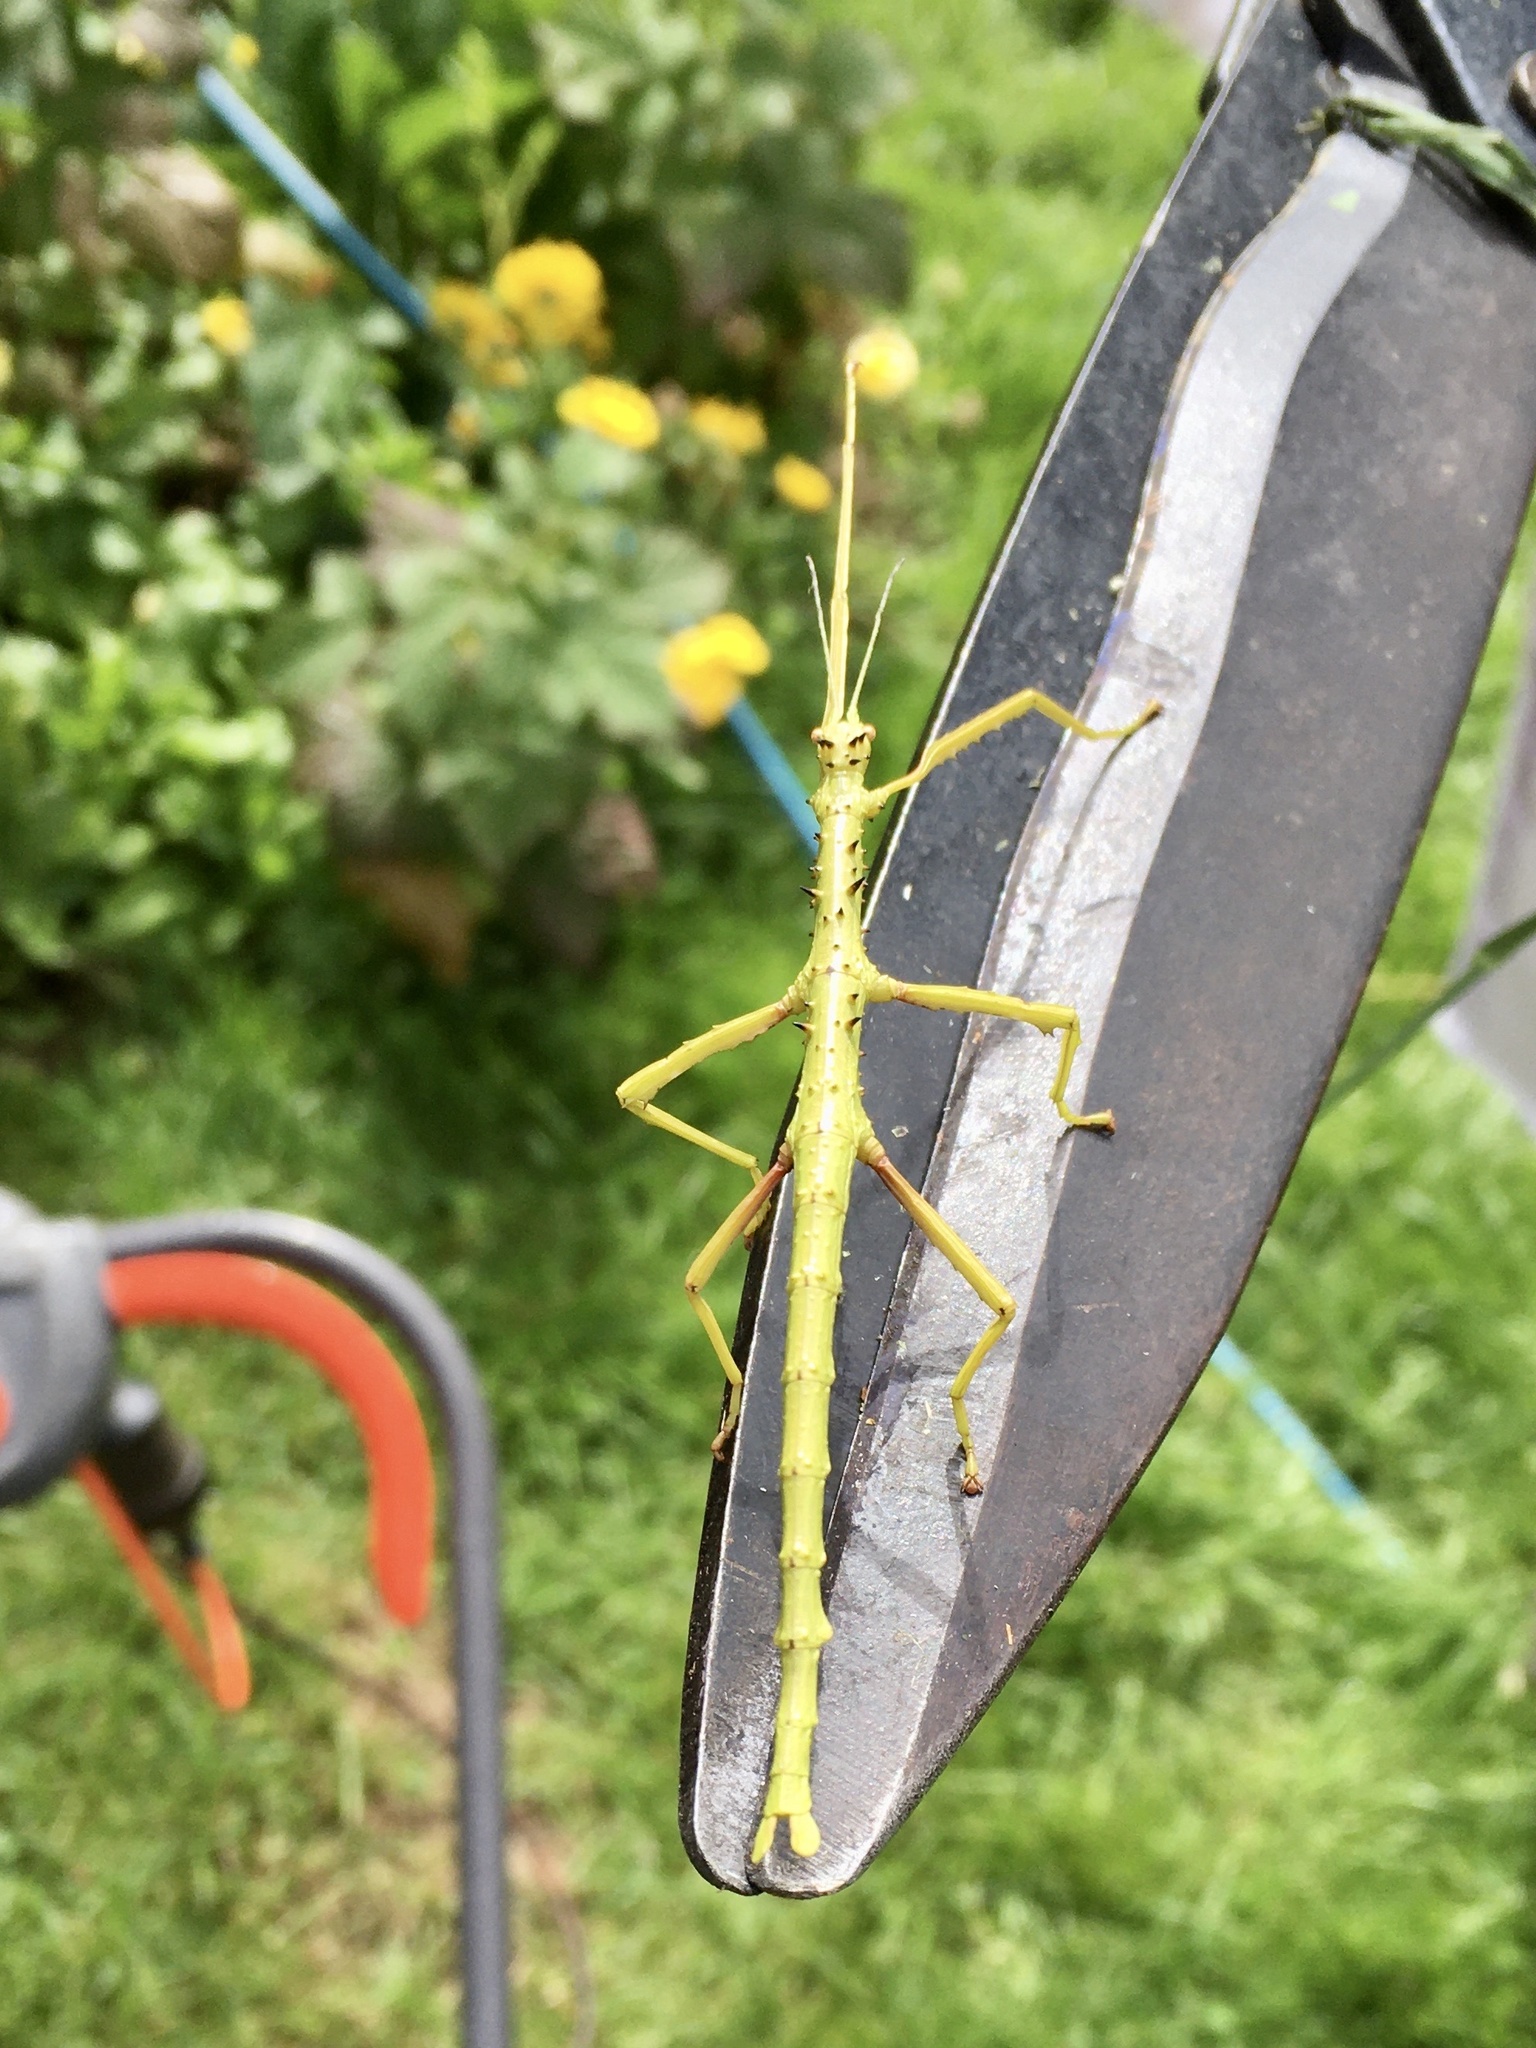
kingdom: Animalia
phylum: Arthropoda
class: Insecta
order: Phasmida
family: Phasmatidae
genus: Acanthoxyla
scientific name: Acanthoxyla prasina
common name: Black-spined stick insect
